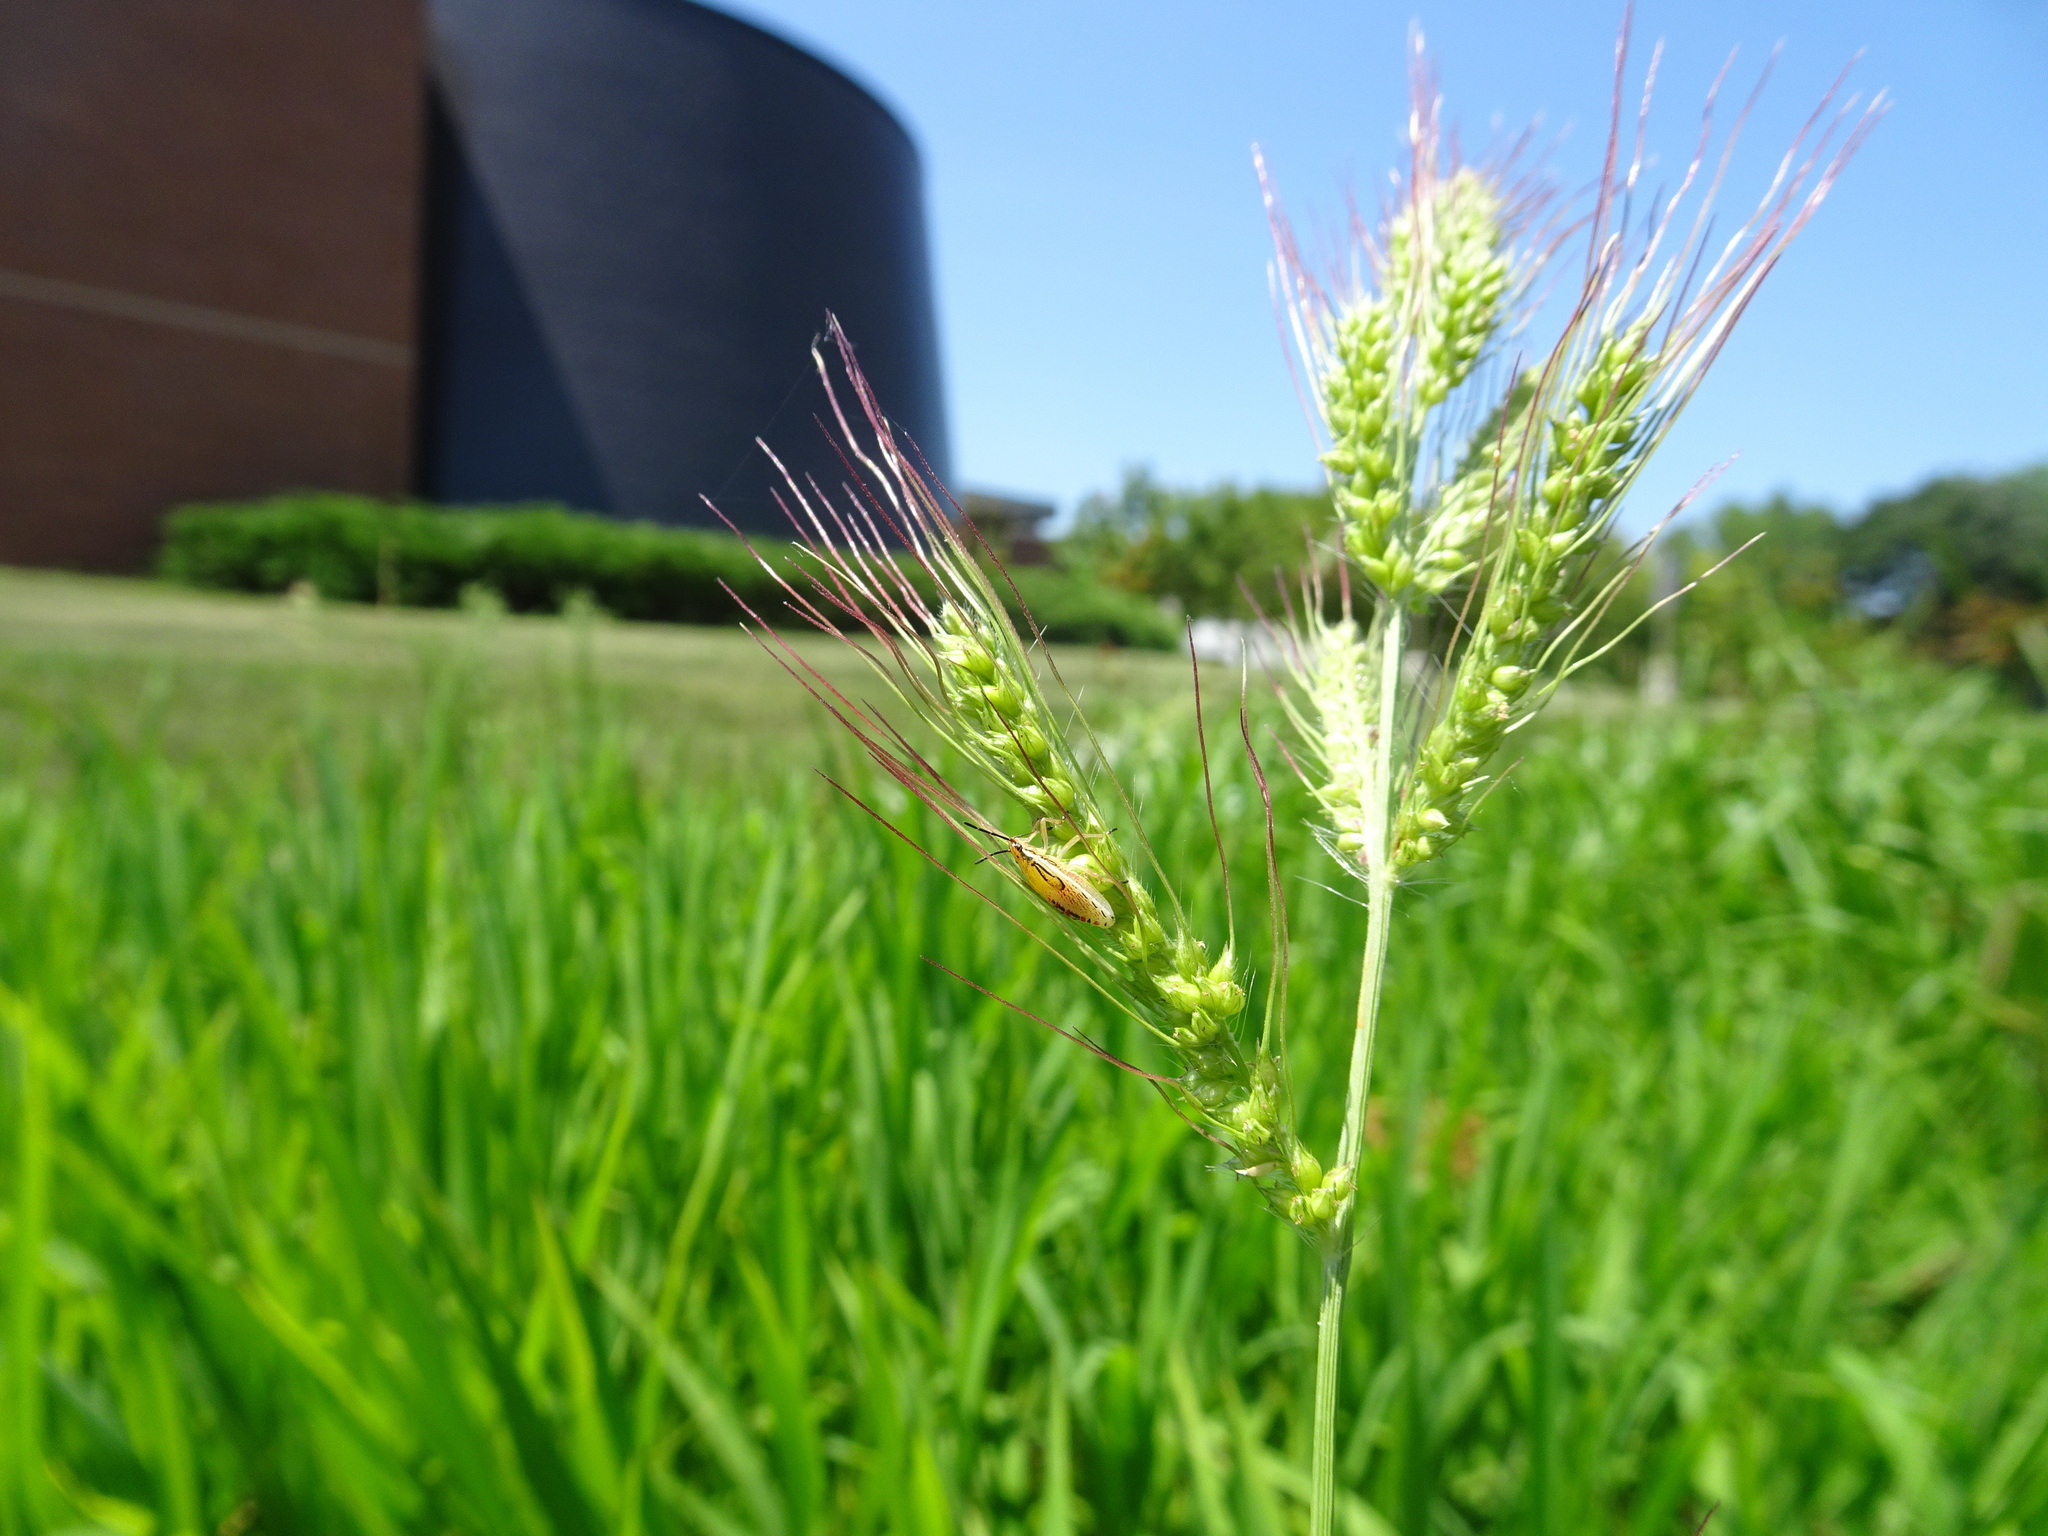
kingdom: Plantae
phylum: Tracheophyta
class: Liliopsida
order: Poales
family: Poaceae
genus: Echinochloa
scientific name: Echinochloa
